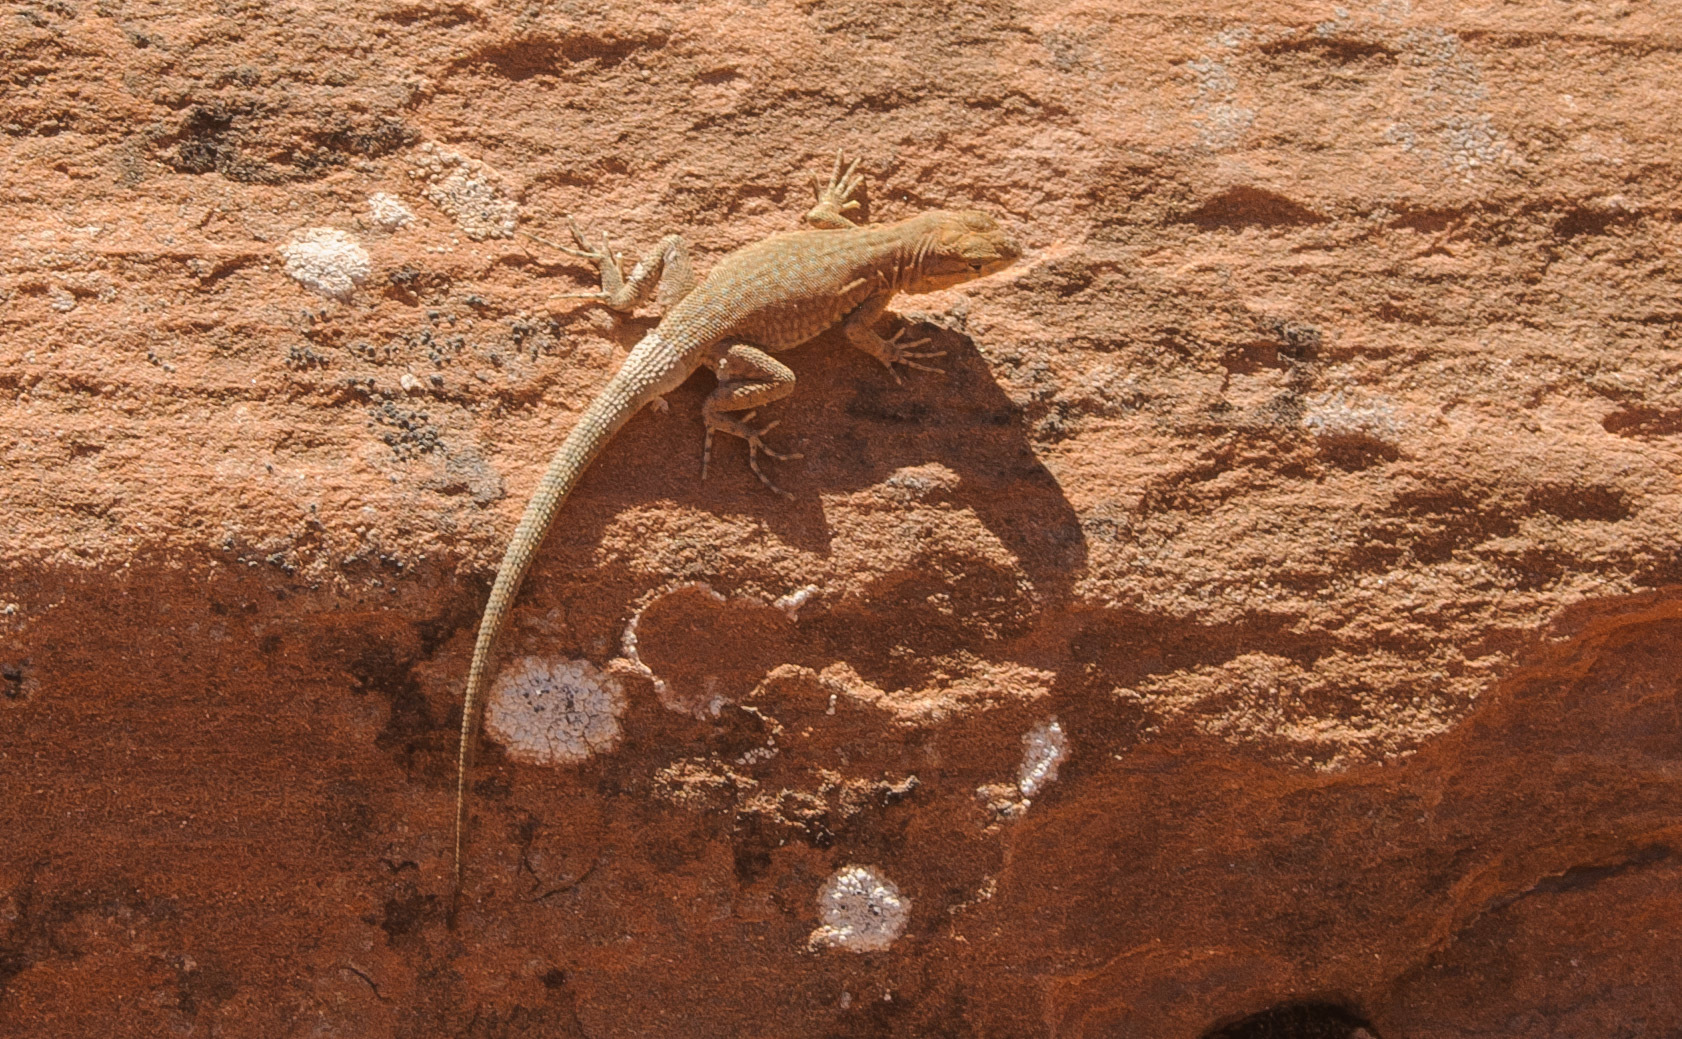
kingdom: Animalia
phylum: Chordata
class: Squamata
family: Phrynosomatidae
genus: Uta
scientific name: Uta stansburiana
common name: Side-blotched lizard
